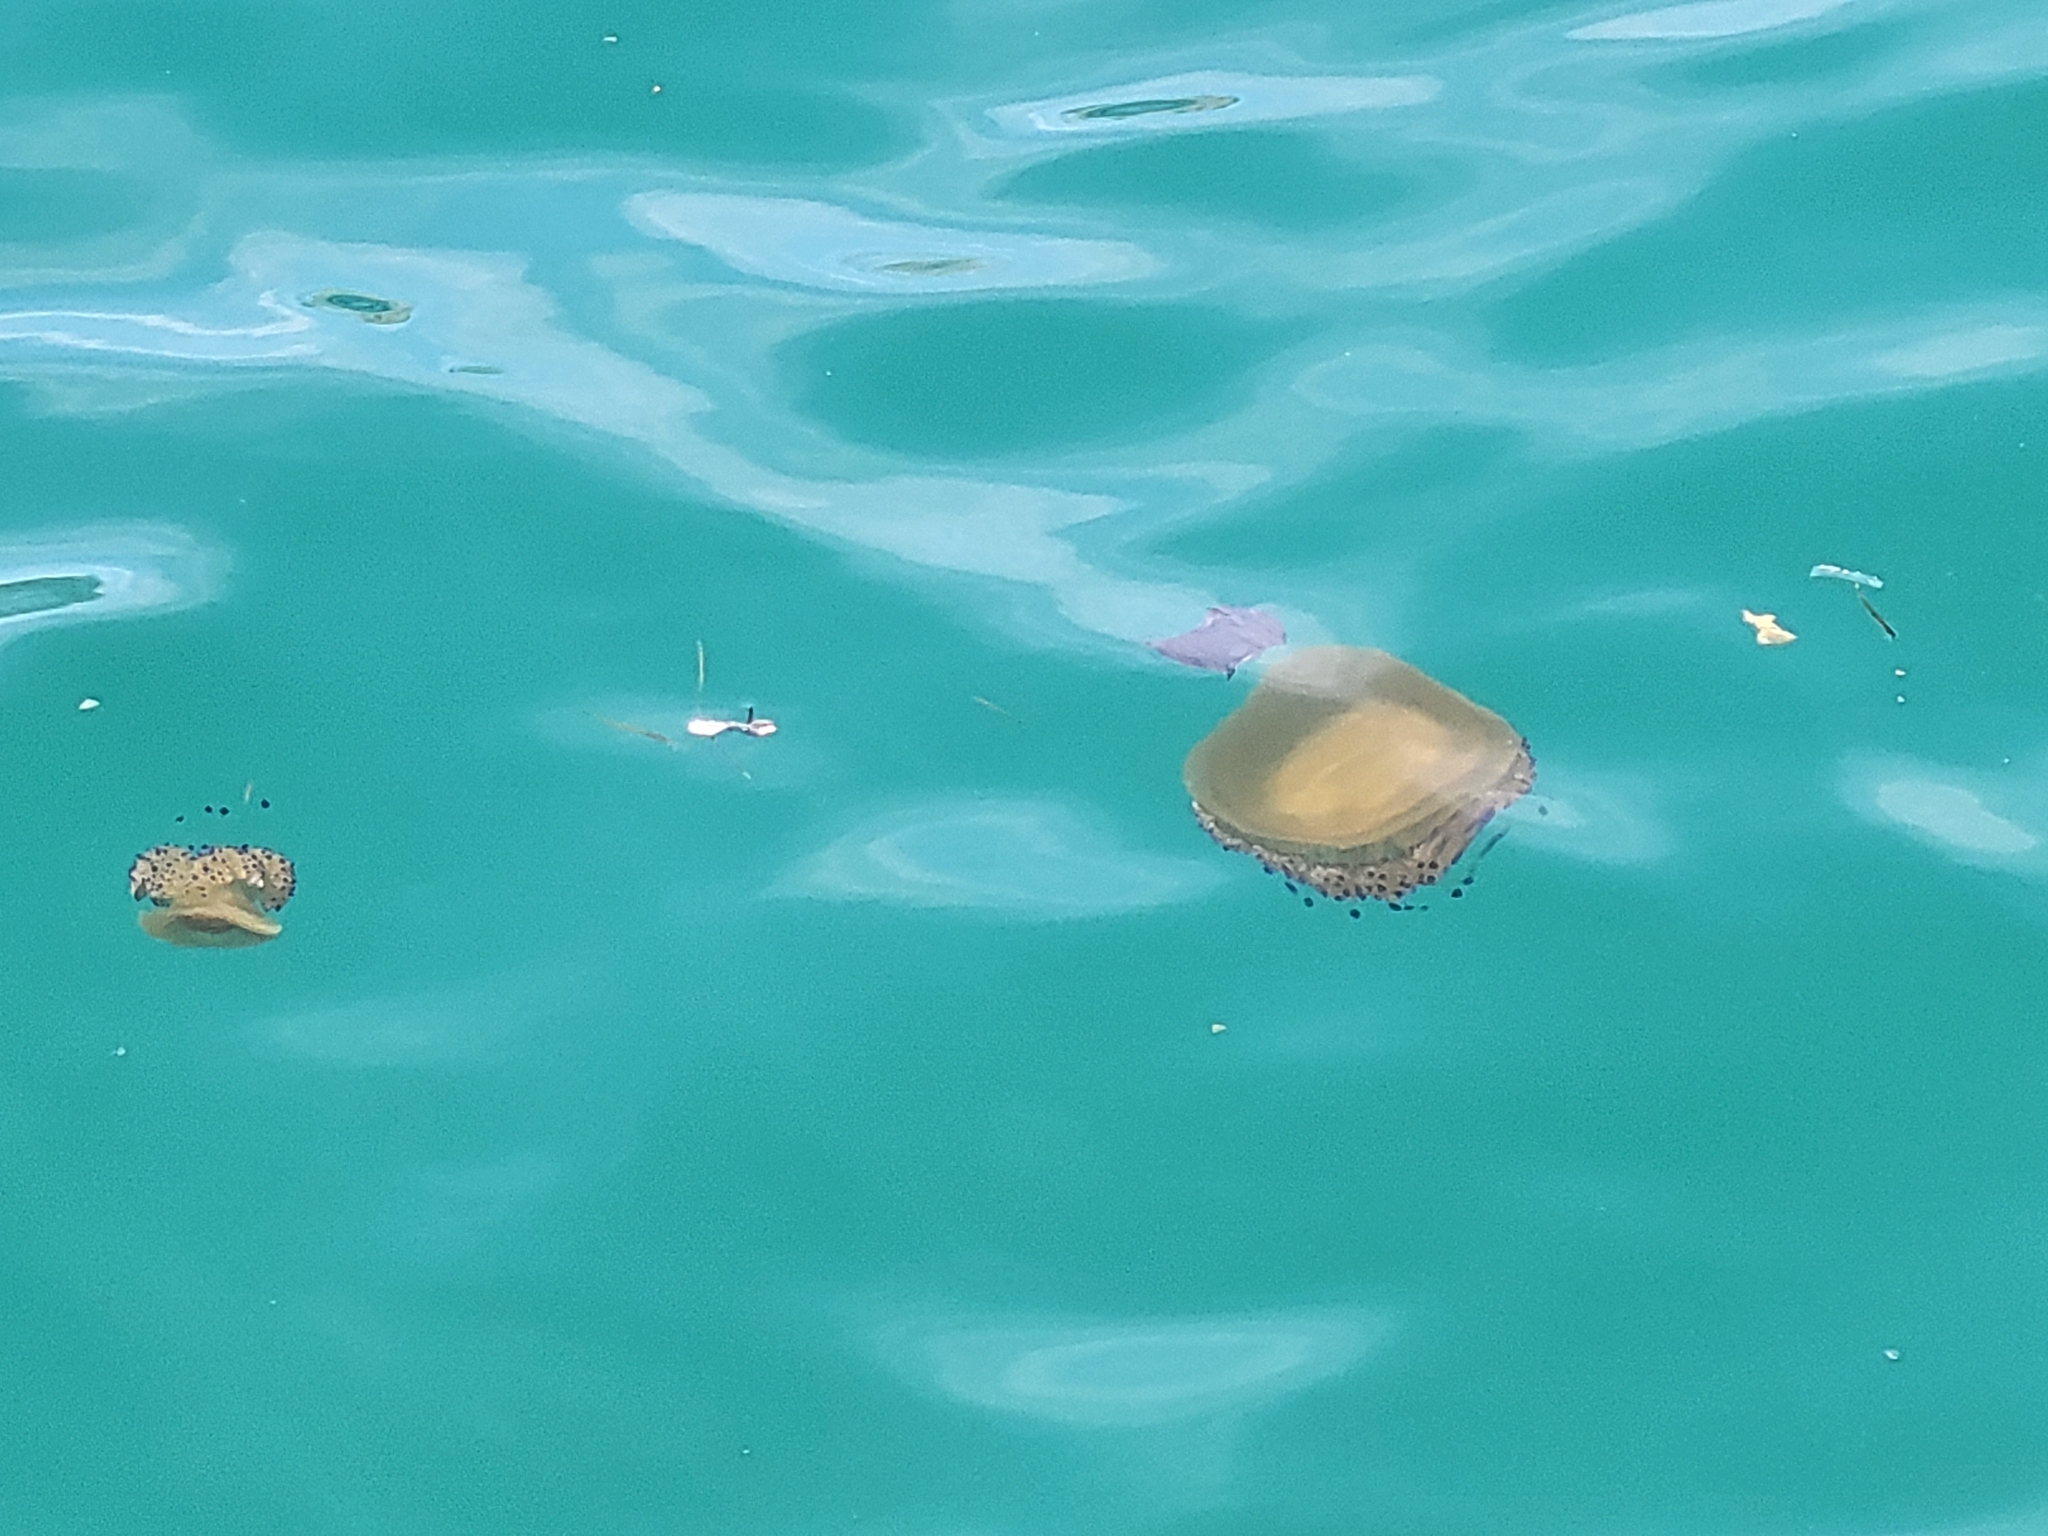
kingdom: Animalia
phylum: Cnidaria
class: Scyphozoa
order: Rhizostomeae
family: Cepheidae
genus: Cotylorhiza
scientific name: Cotylorhiza tuberculata
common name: Mediterranean jelly
